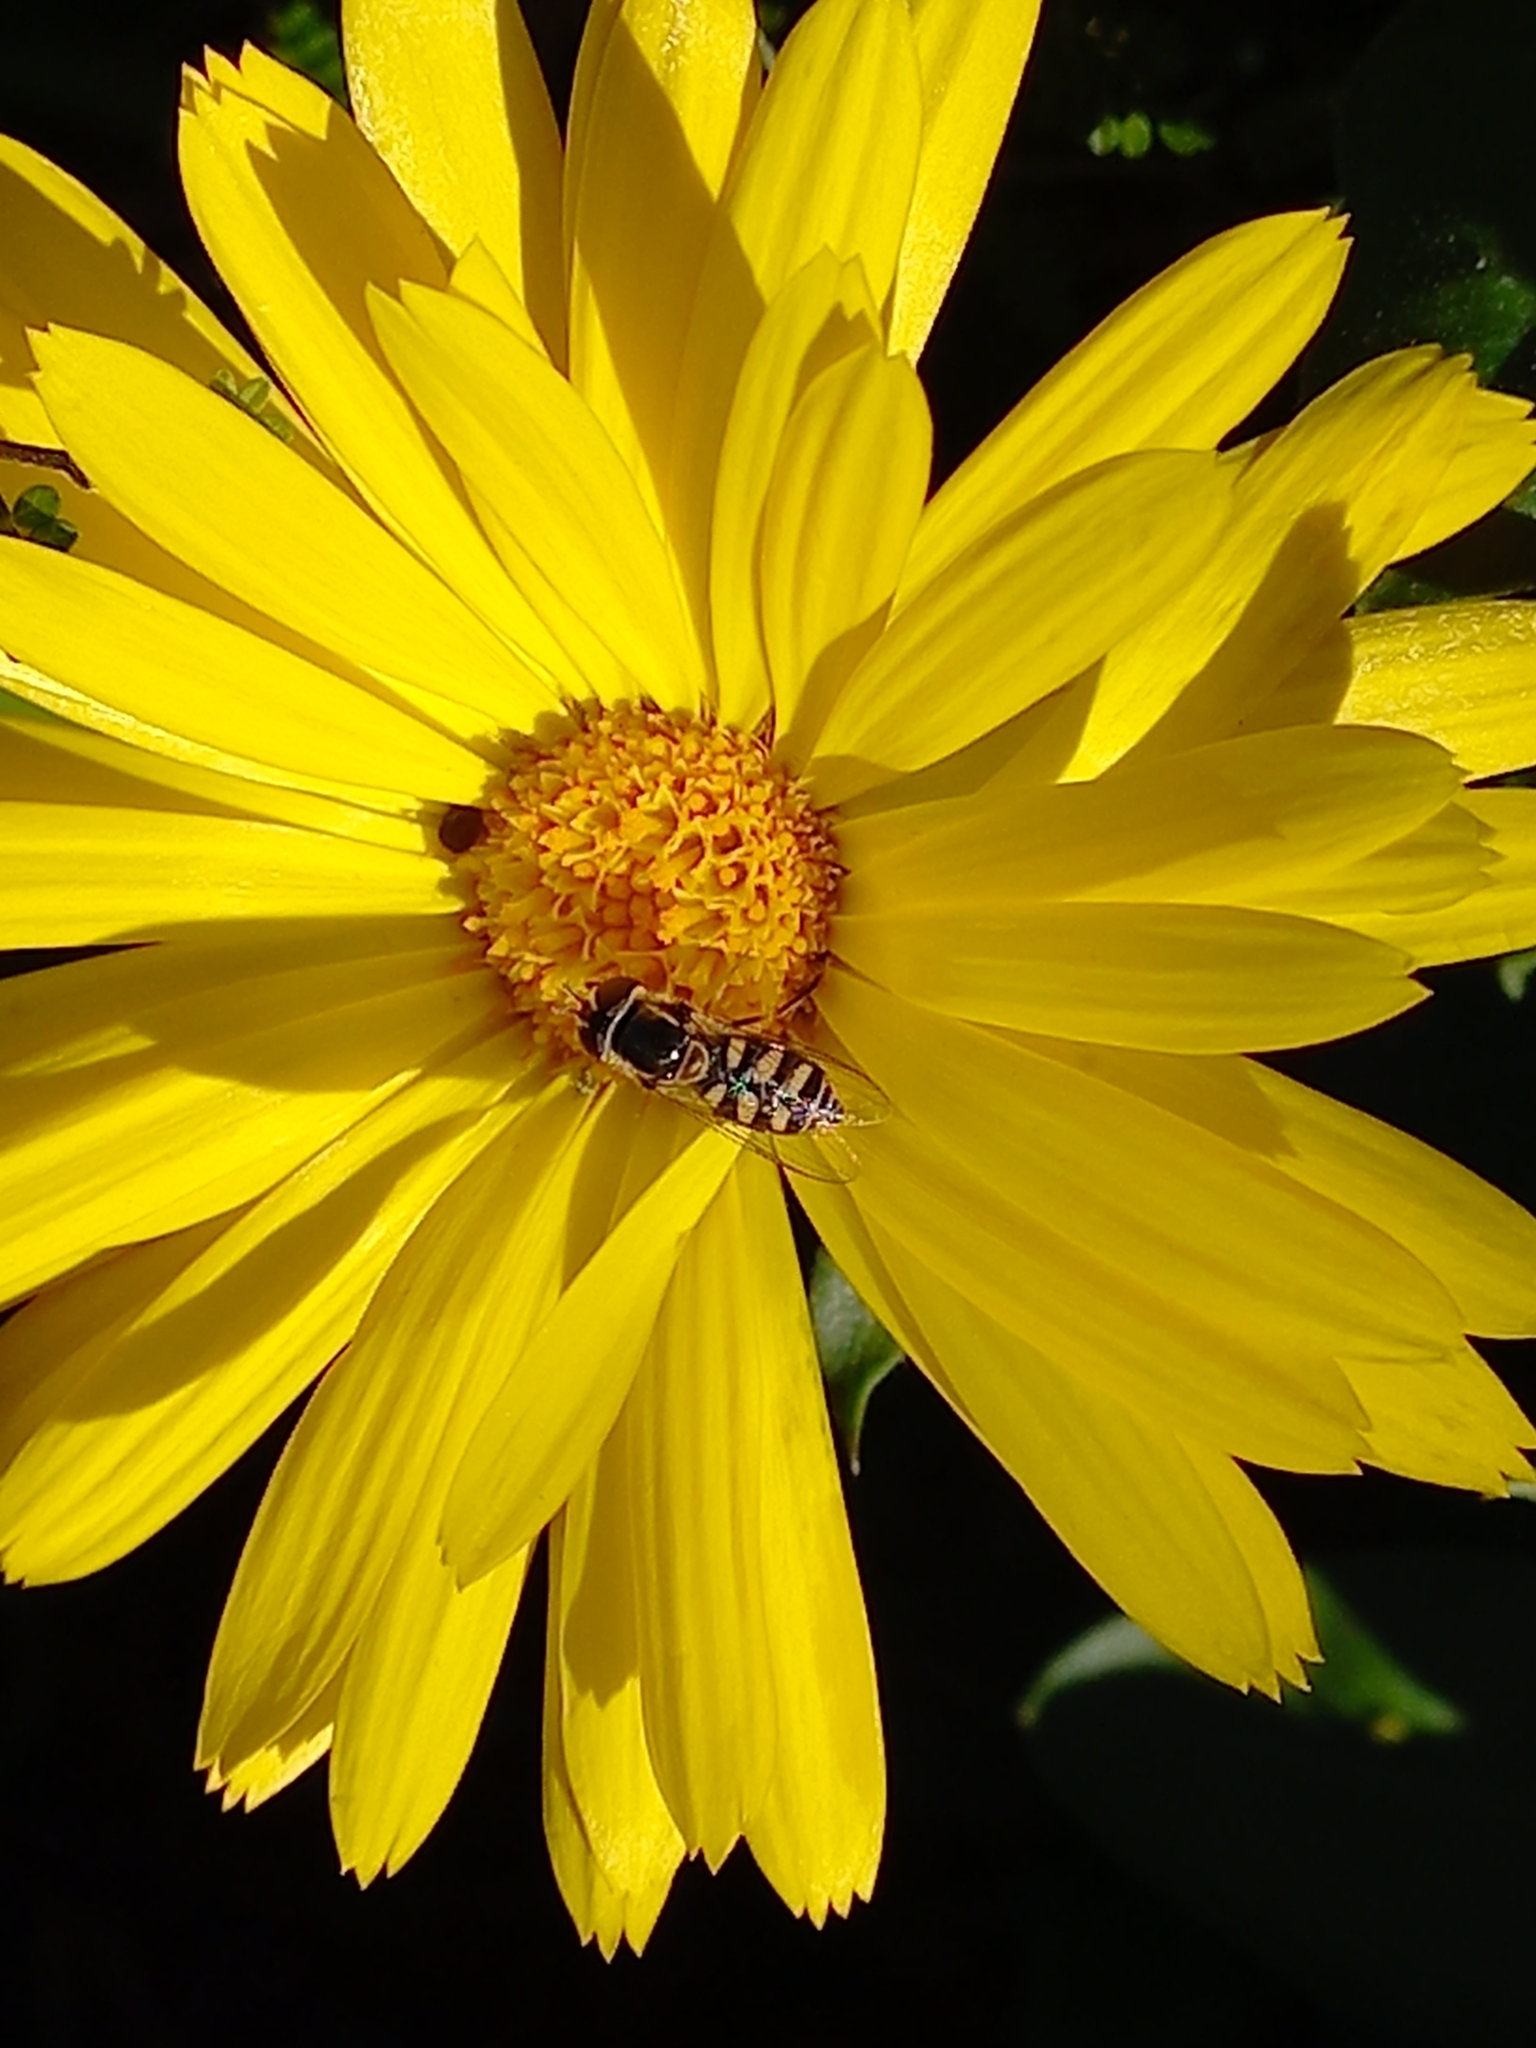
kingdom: Animalia
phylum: Arthropoda
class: Insecta
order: Diptera
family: Syrphidae
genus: Simosyrphus
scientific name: Simosyrphus grandicornis
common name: Hoverfly
